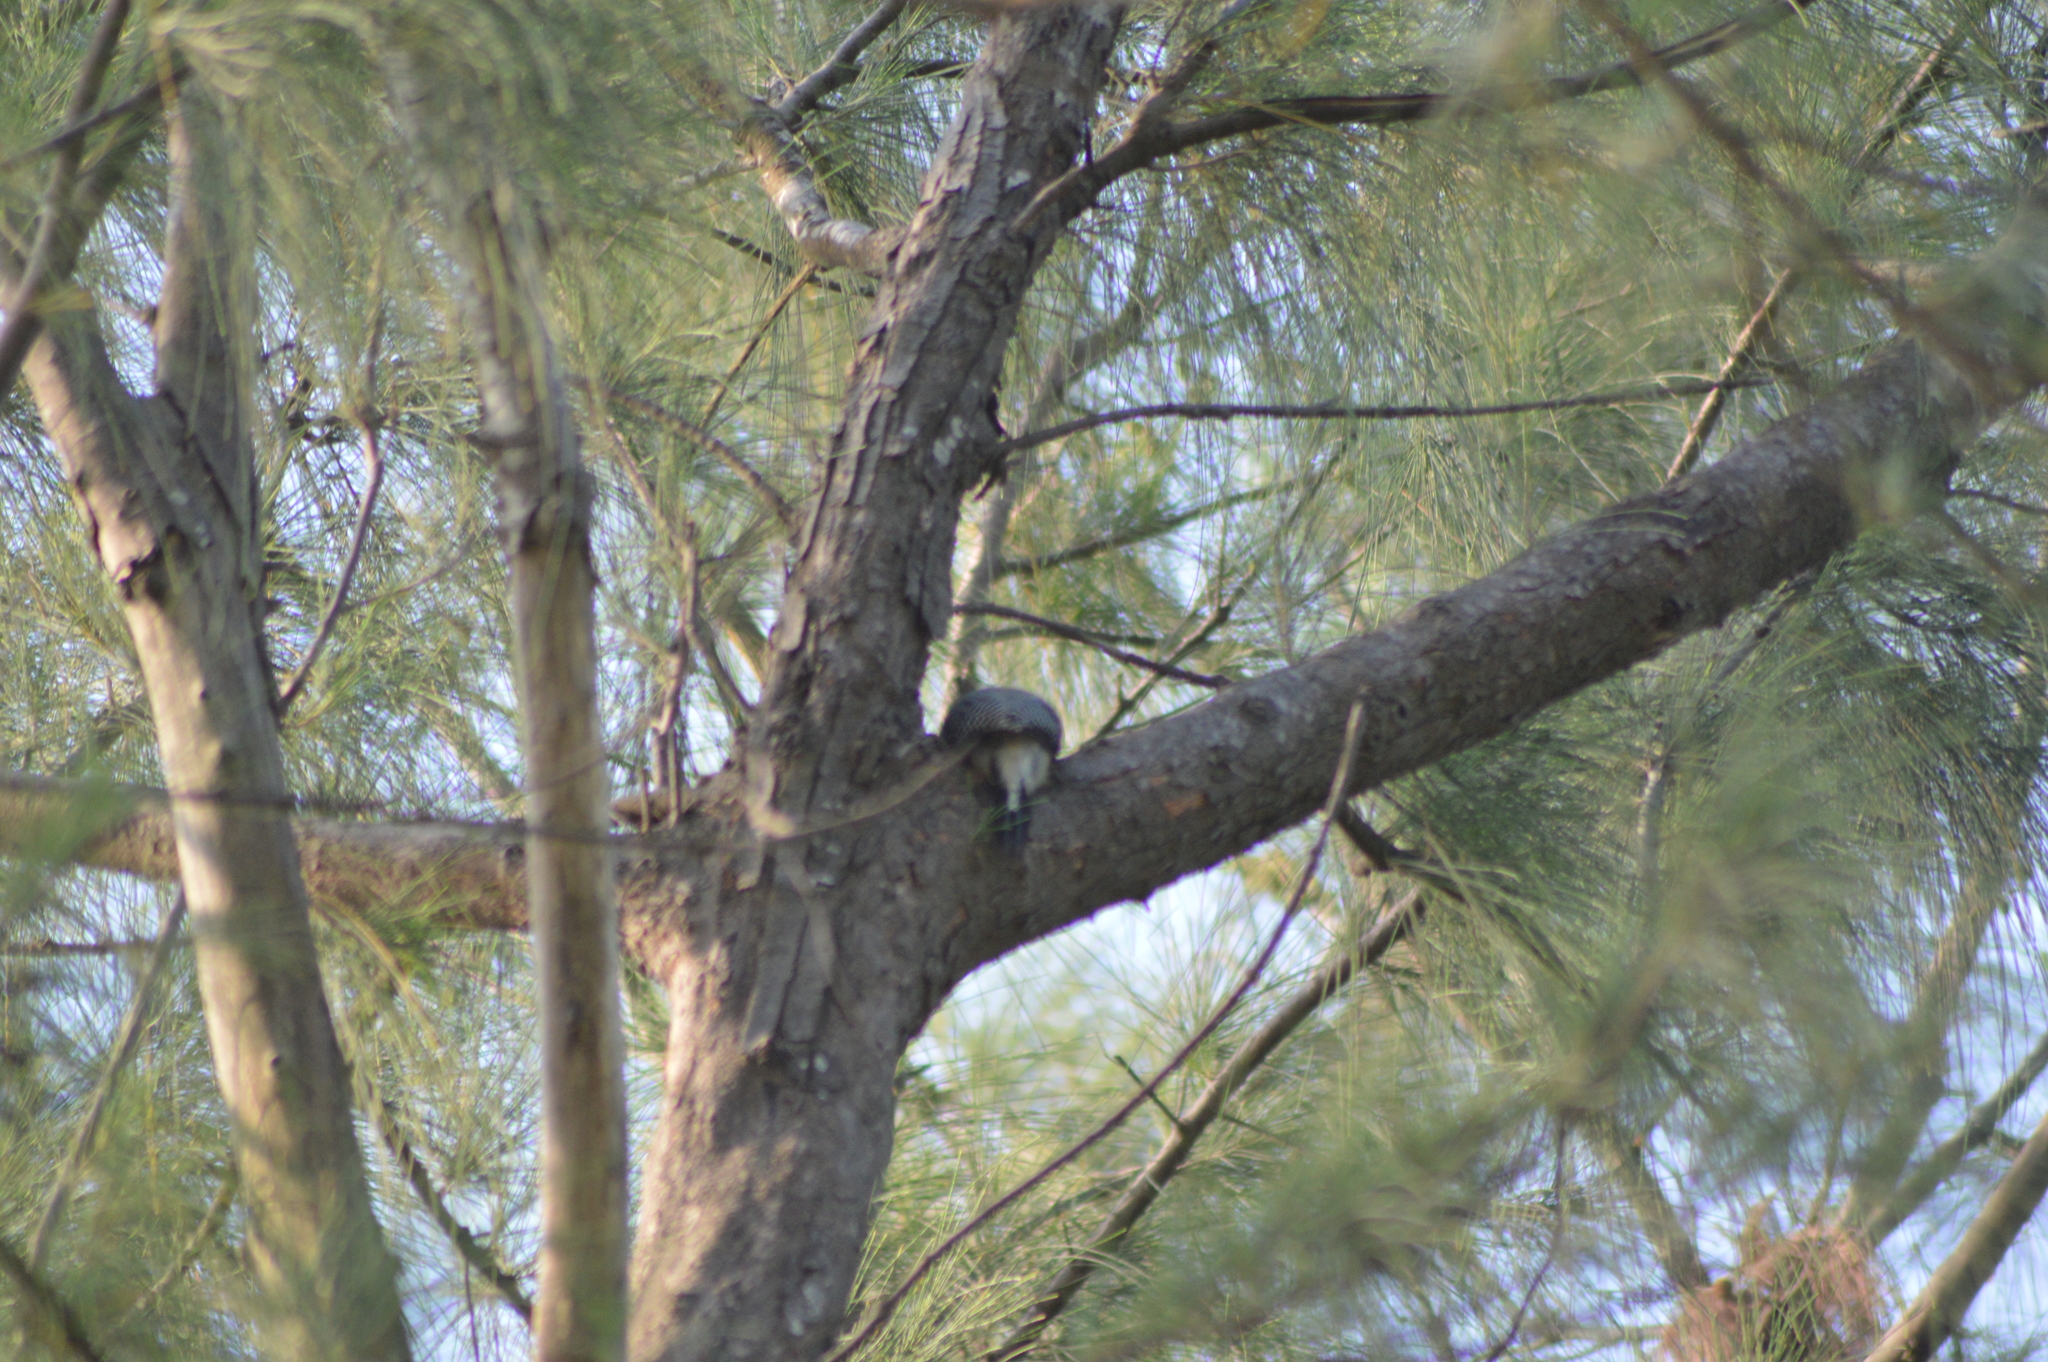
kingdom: Animalia
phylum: Chordata
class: Aves
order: Piciformes
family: Picidae
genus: Melanerpes
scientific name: Melanerpes aurifrons
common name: Golden-fronted woodpecker
